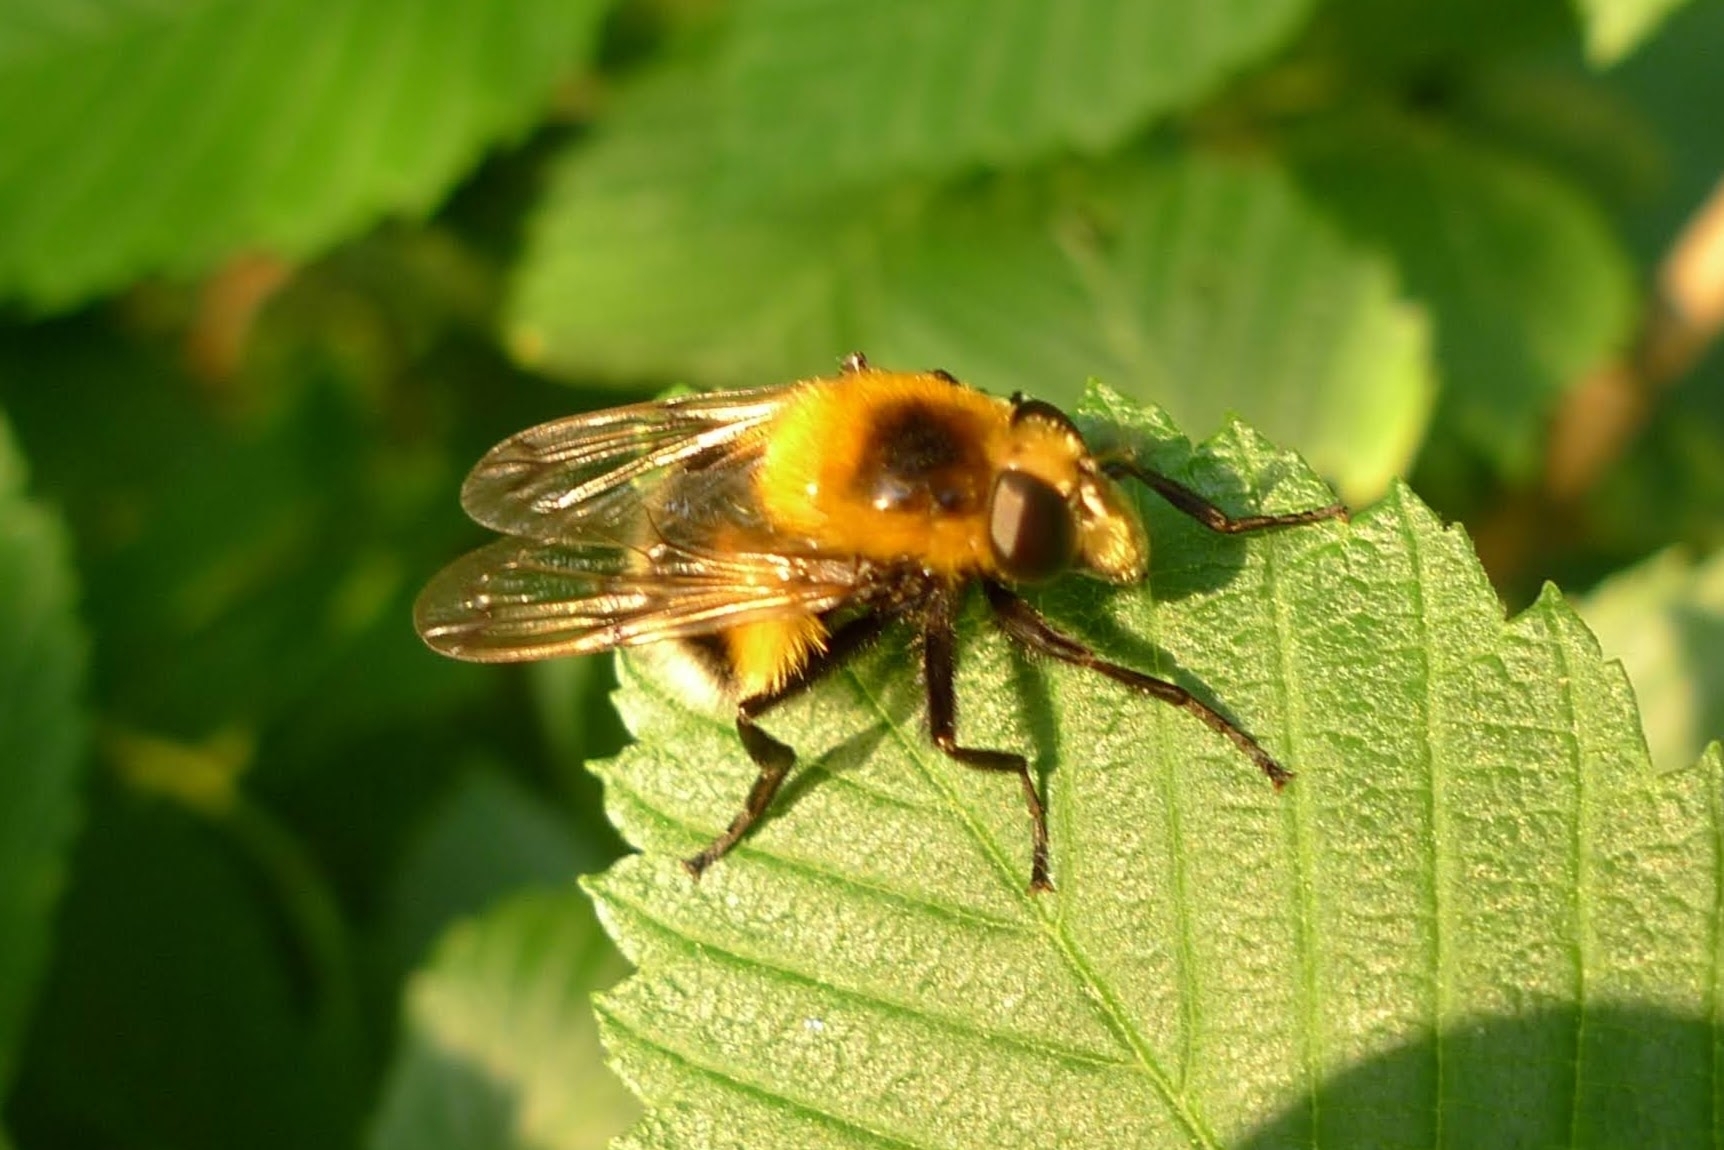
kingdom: Animalia
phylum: Arthropoda
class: Insecta
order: Diptera
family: Syrphidae
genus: Volucella
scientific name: Volucella bombylans
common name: Bumble bee hover fly
